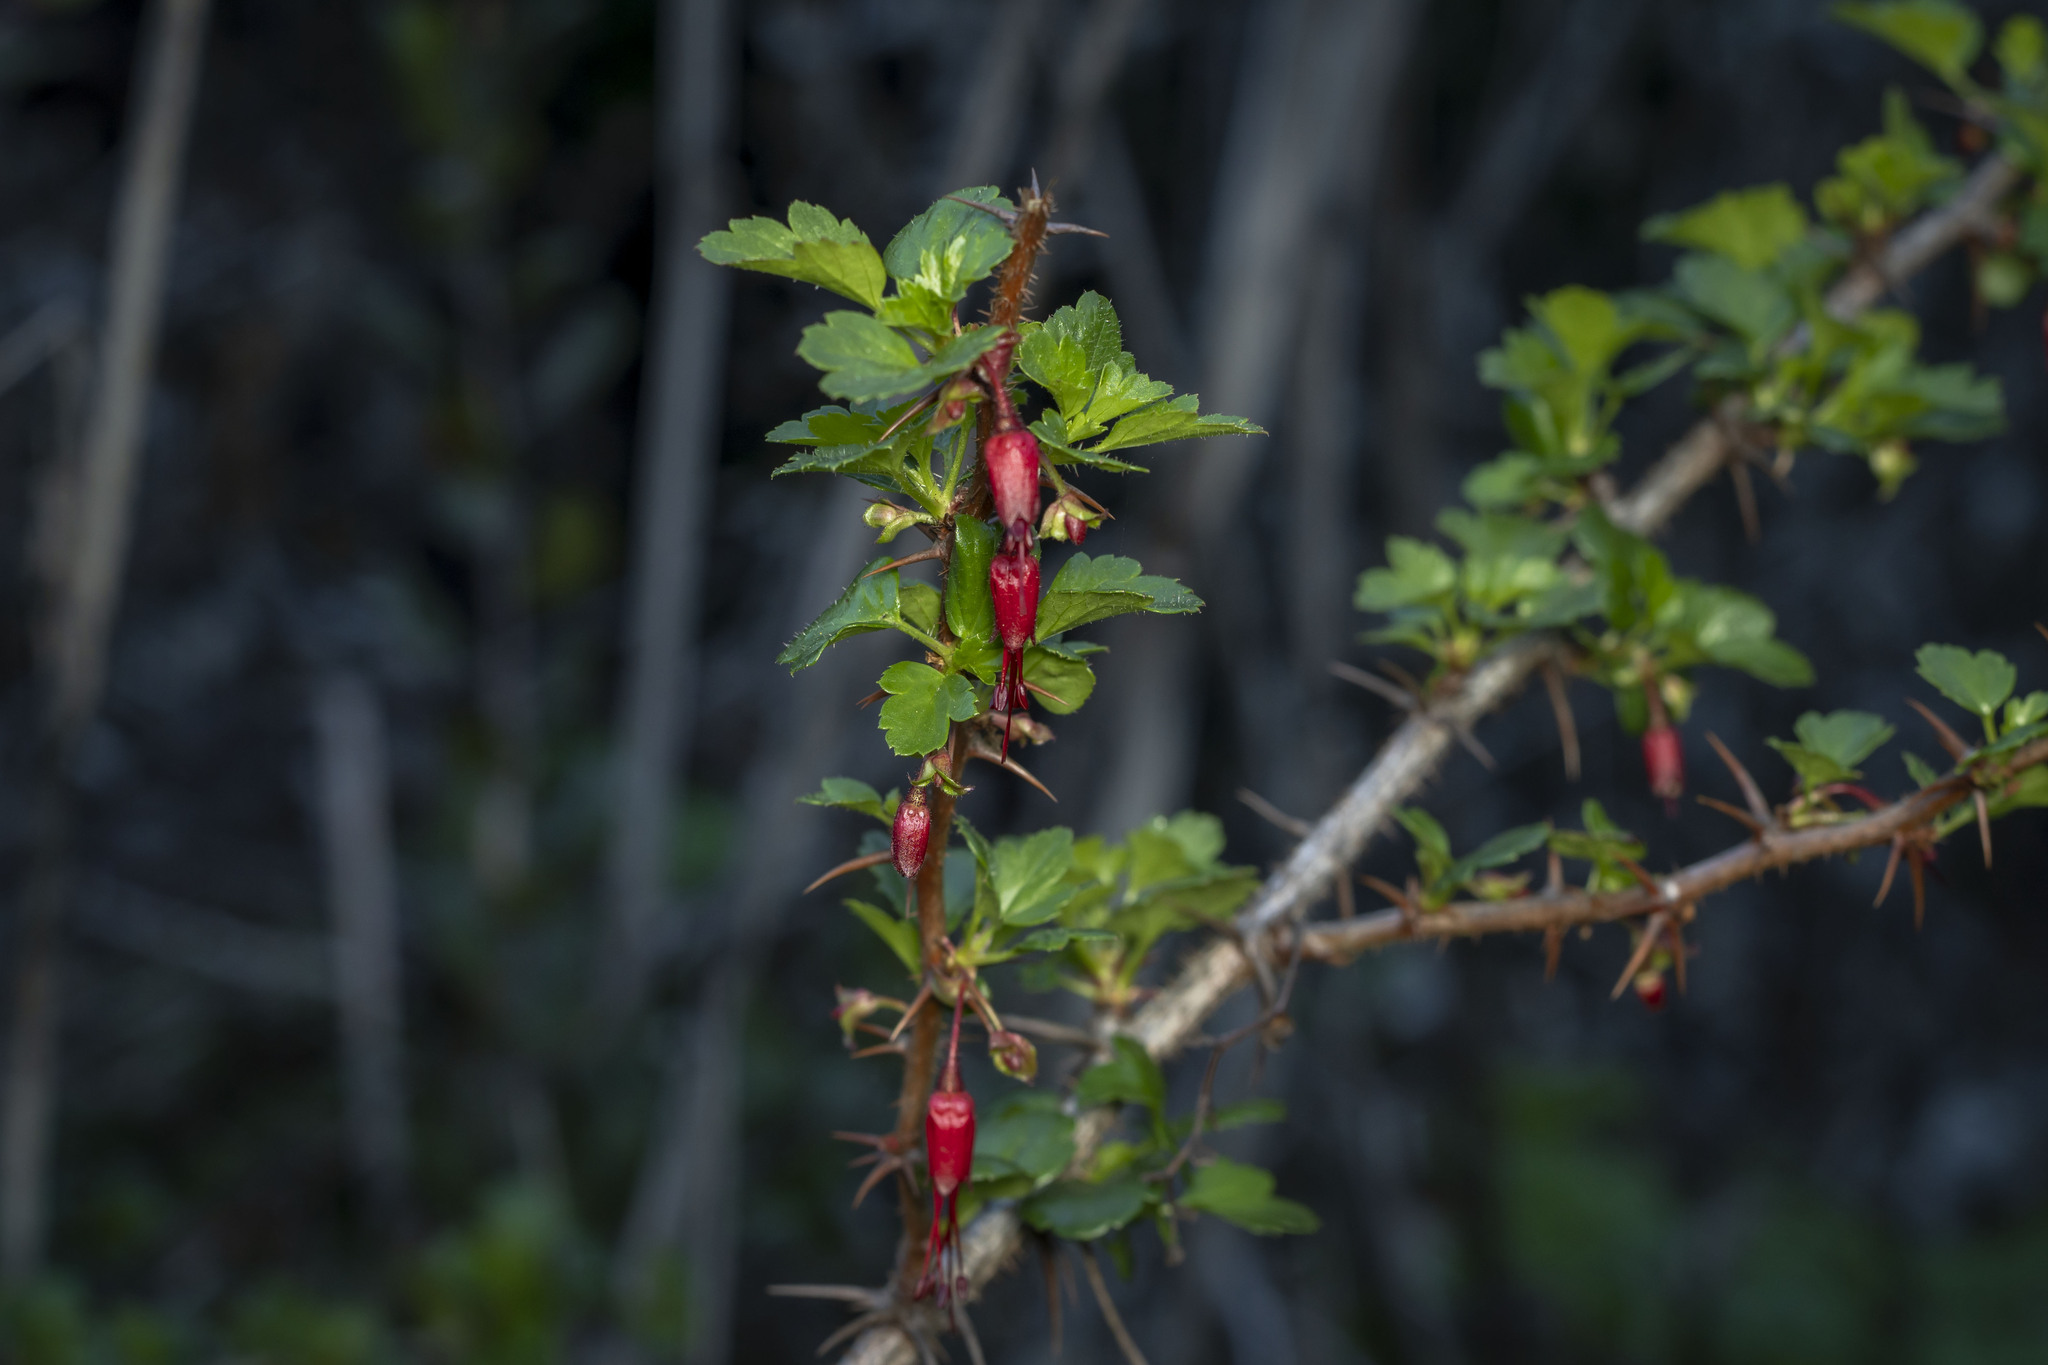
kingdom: Plantae
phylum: Tracheophyta
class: Magnoliopsida
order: Saxifragales
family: Grossulariaceae
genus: Ribes
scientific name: Ribes speciosum
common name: Fuchsia-flower gooseberry
